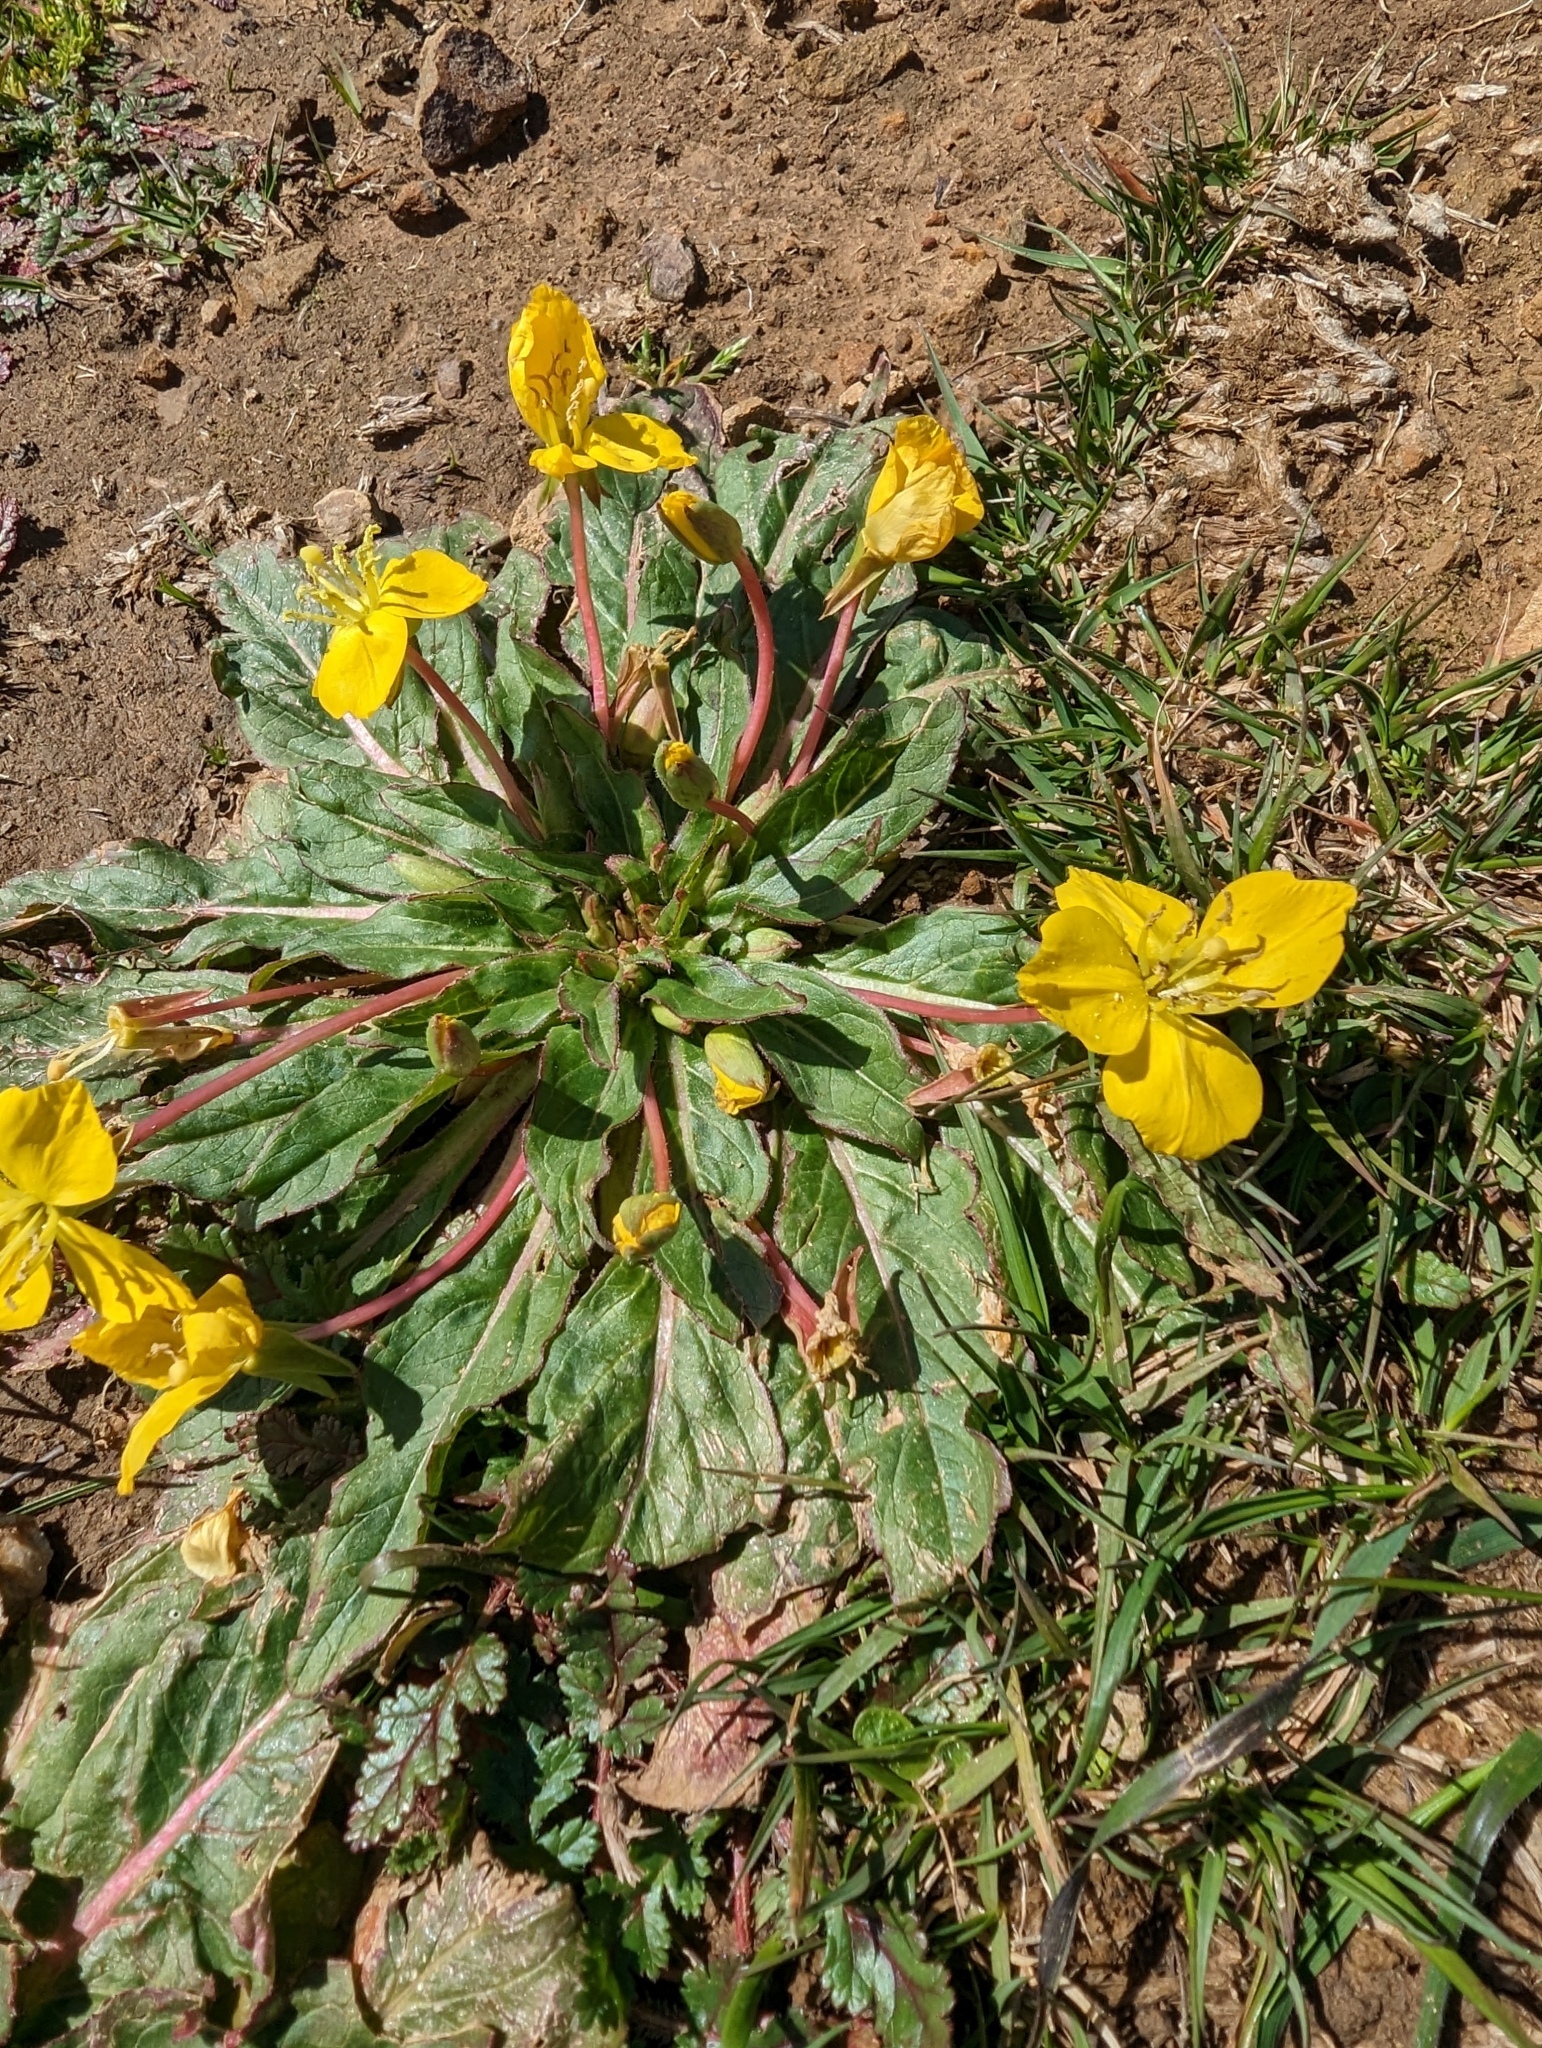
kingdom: Plantae
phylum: Tracheophyta
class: Magnoliopsida
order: Myrtales
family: Onagraceae
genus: Taraxia
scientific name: Taraxia ovata
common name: Goldeneggs
